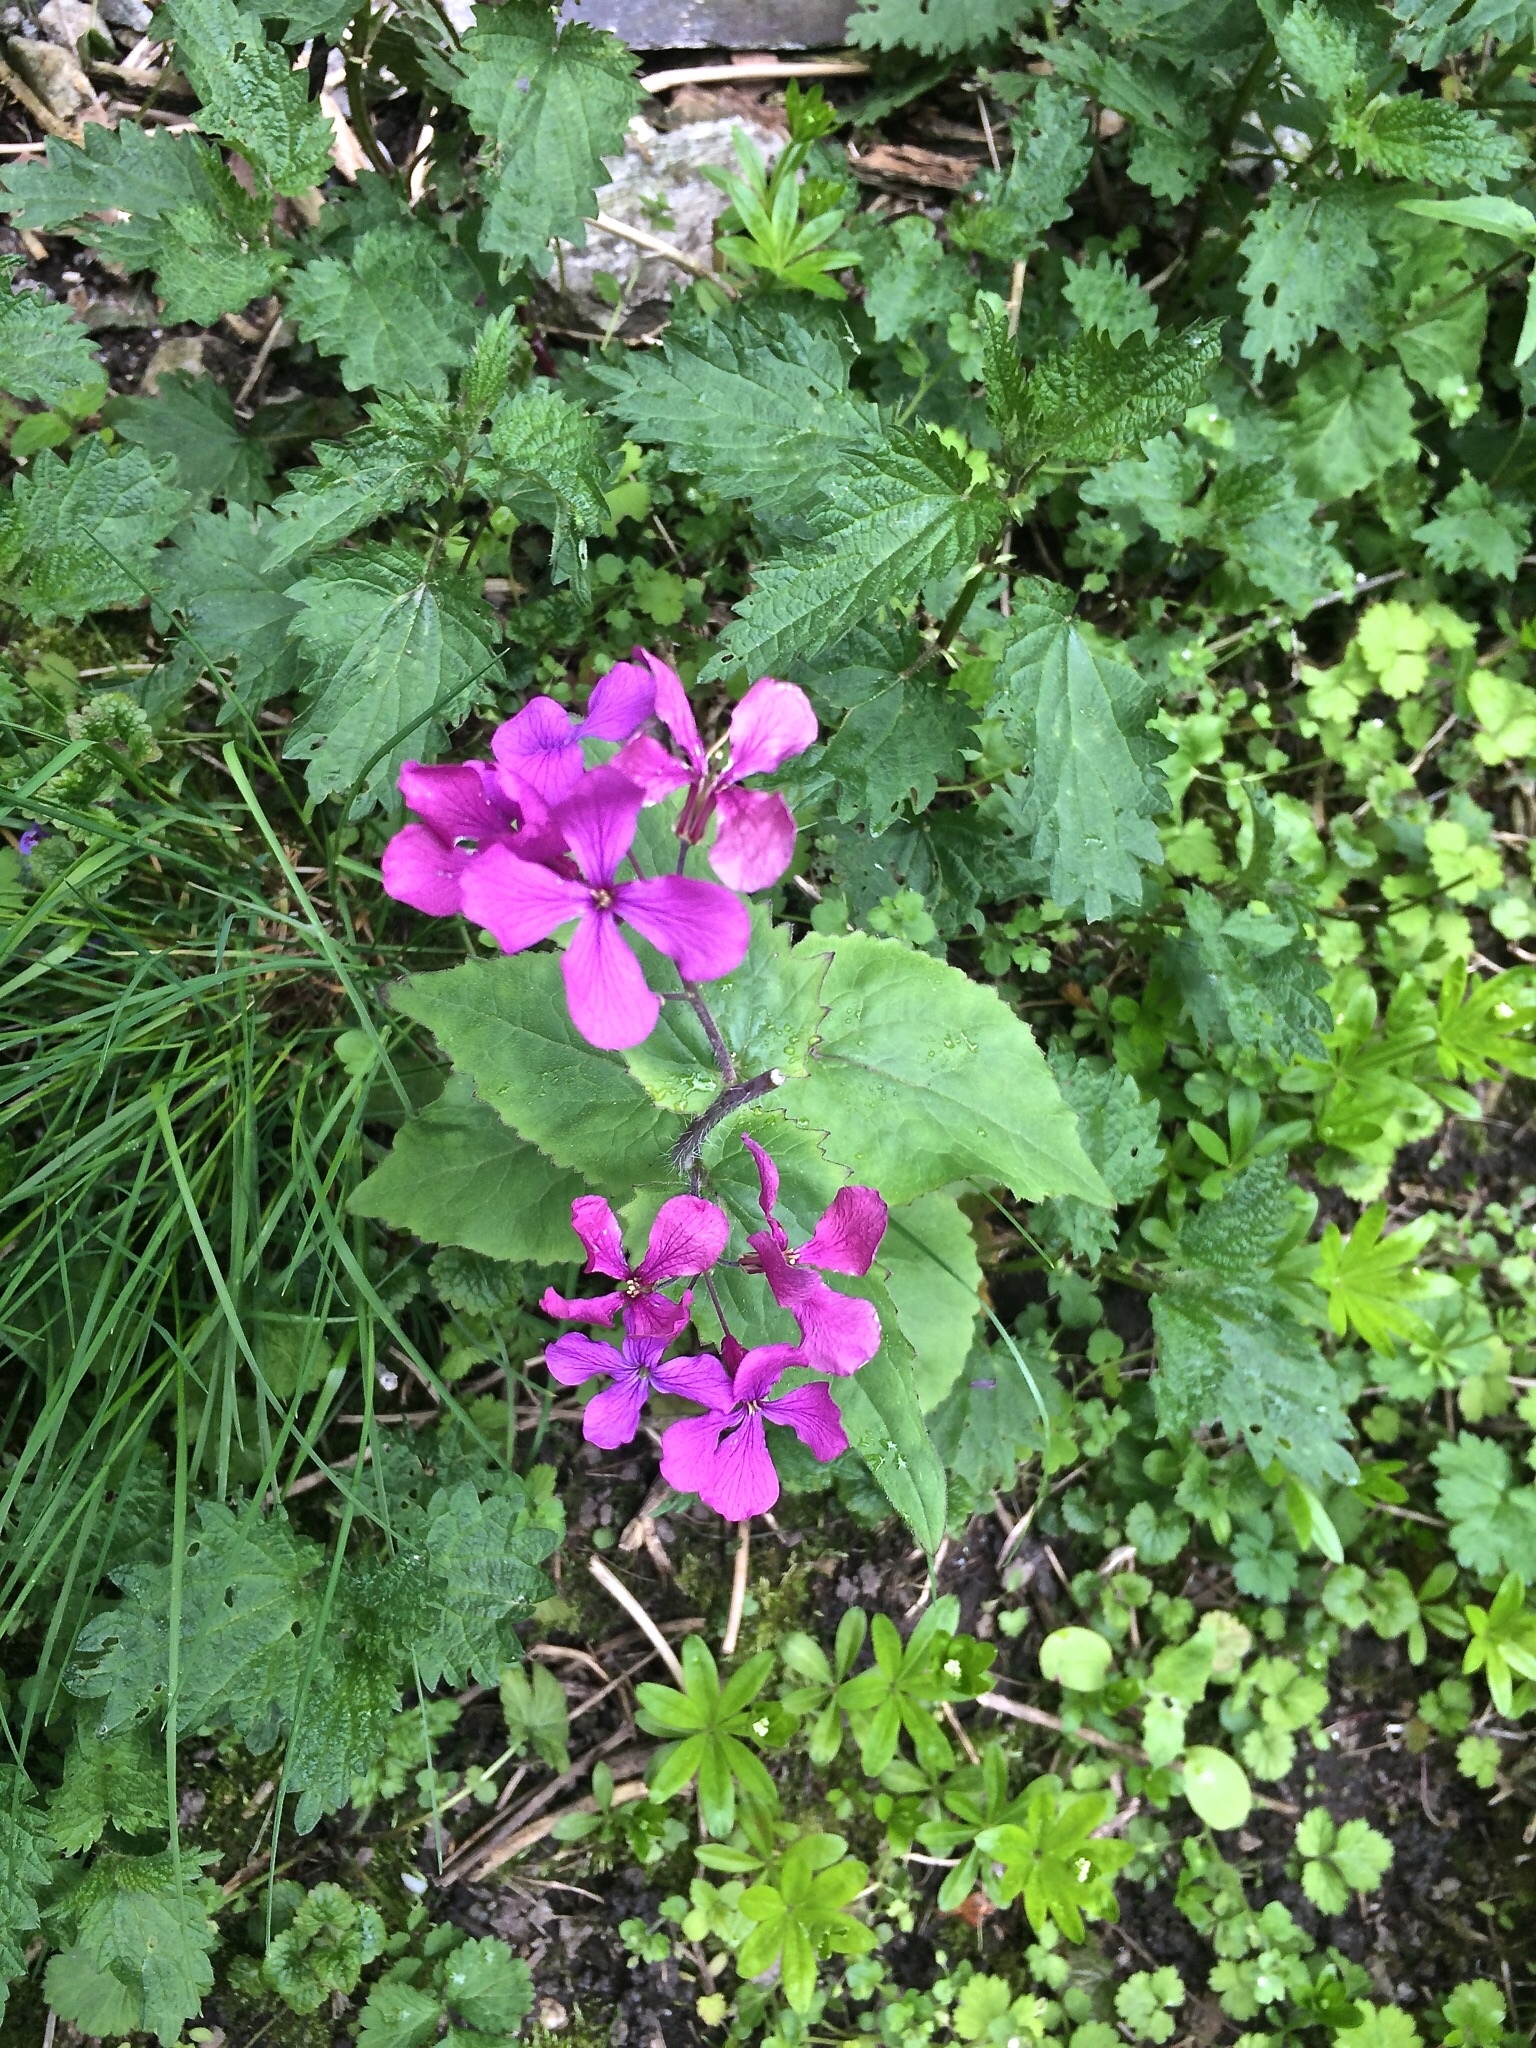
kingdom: Plantae
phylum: Tracheophyta
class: Magnoliopsida
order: Brassicales
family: Brassicaceae
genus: Lunaria
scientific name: Lunaria annua
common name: Honesty
